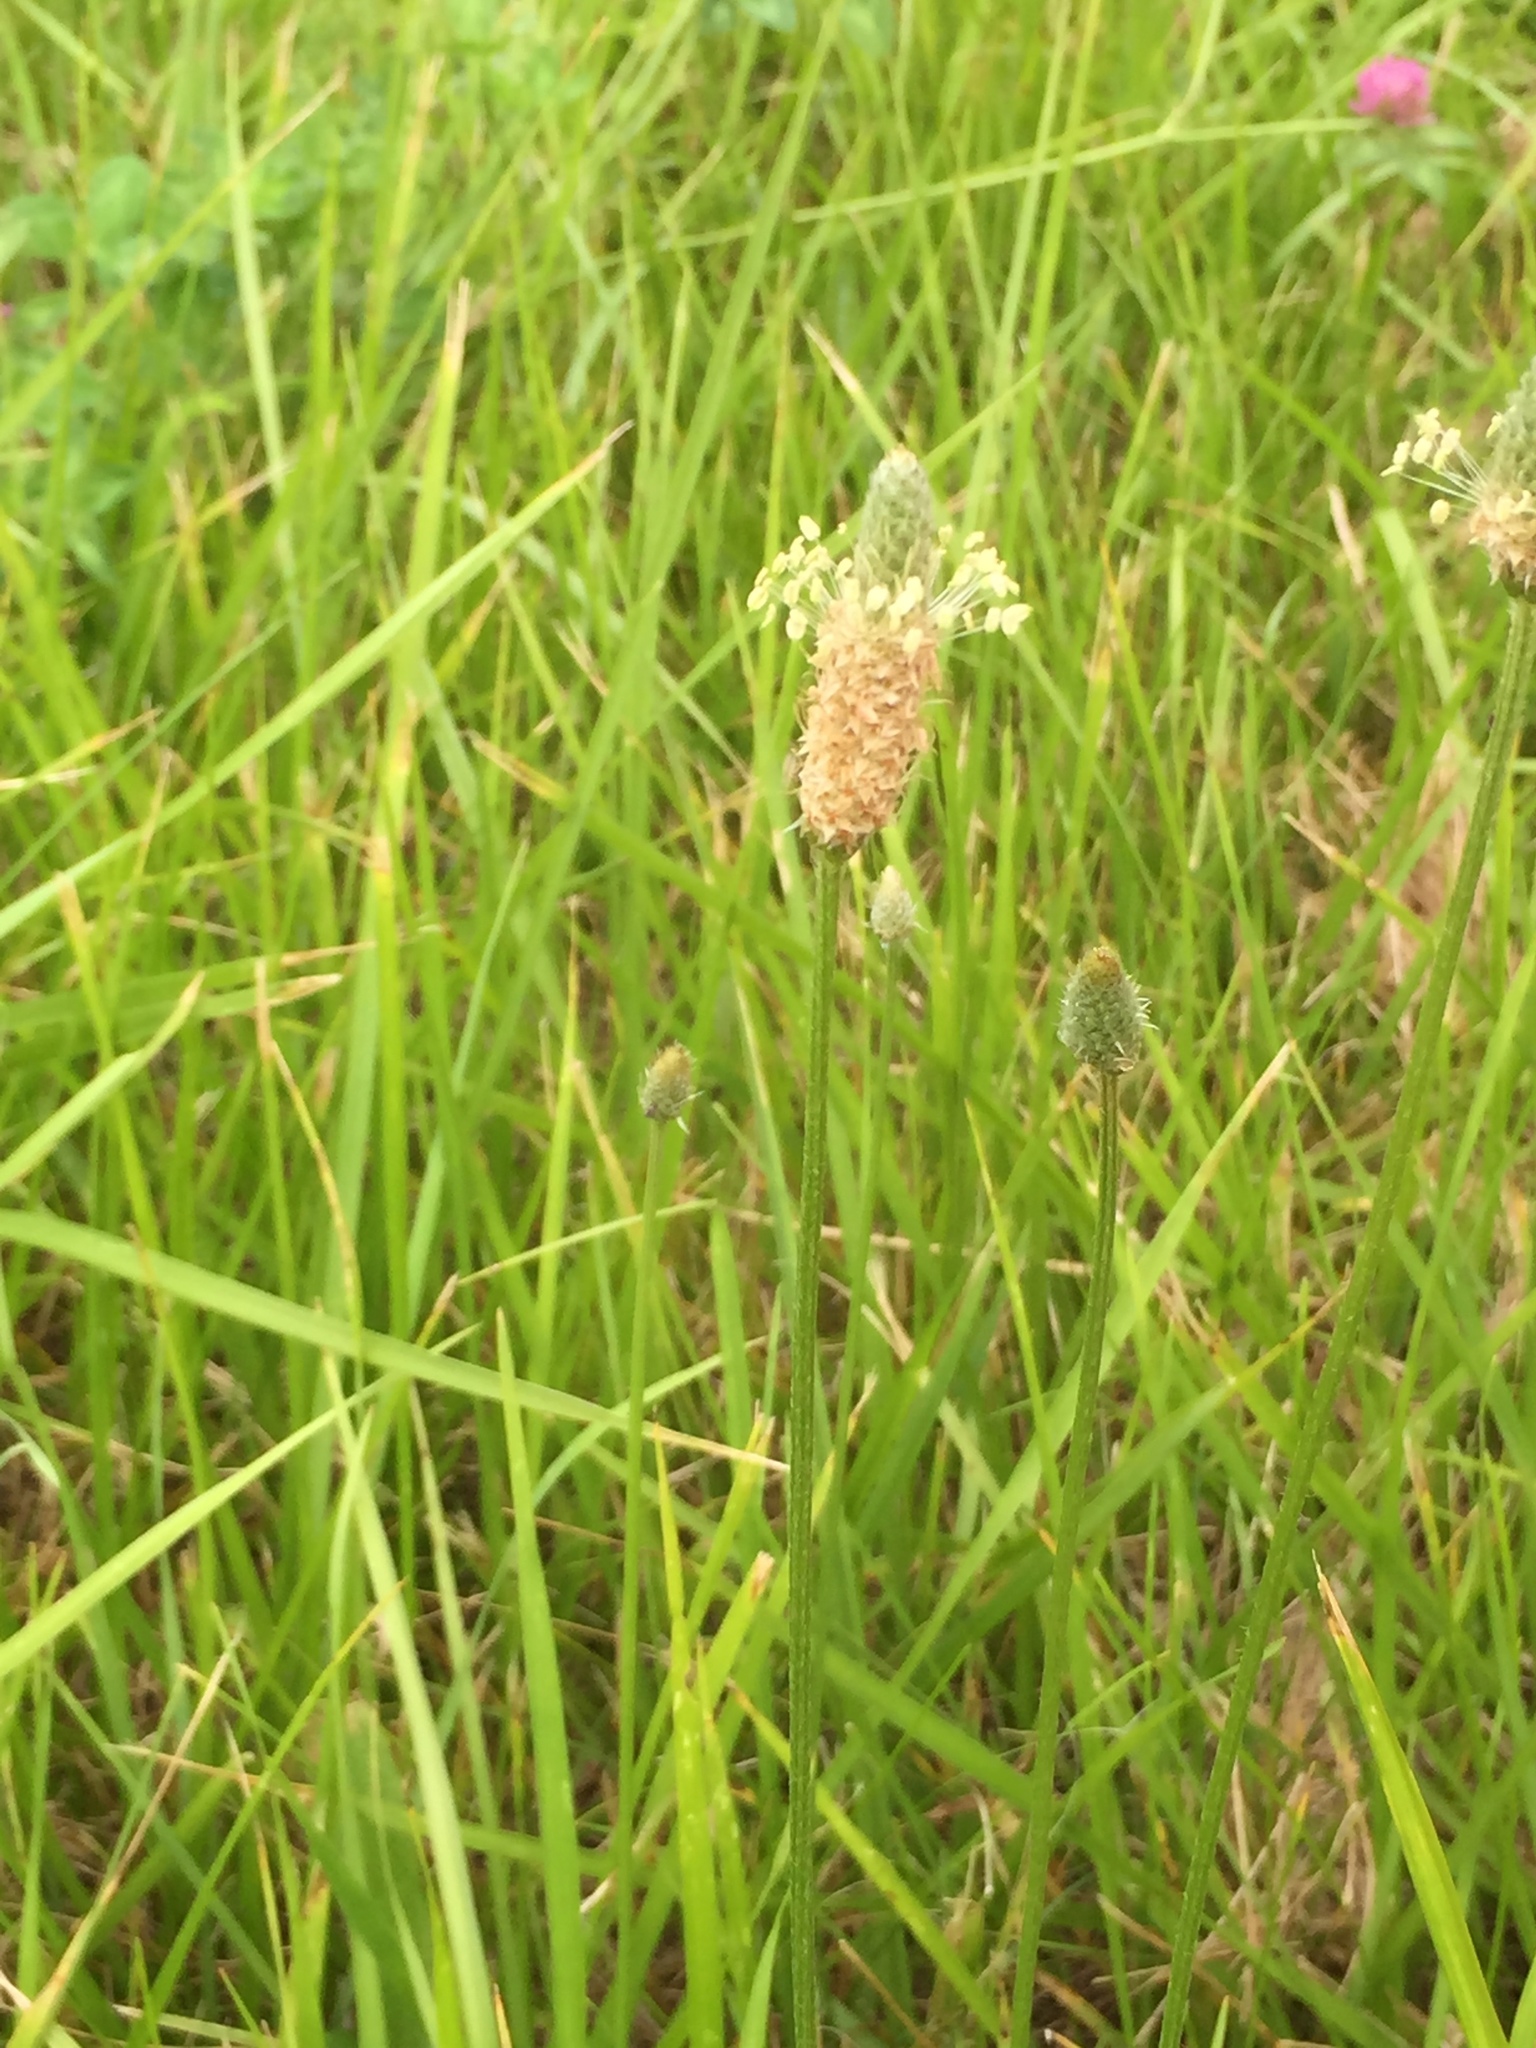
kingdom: Plantae
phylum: Tracheophyta
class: Magnoliopsida
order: Lamiales
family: Plantaginaceae
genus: Plantago
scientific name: Plantago lanceolata
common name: Ribwort plantain
